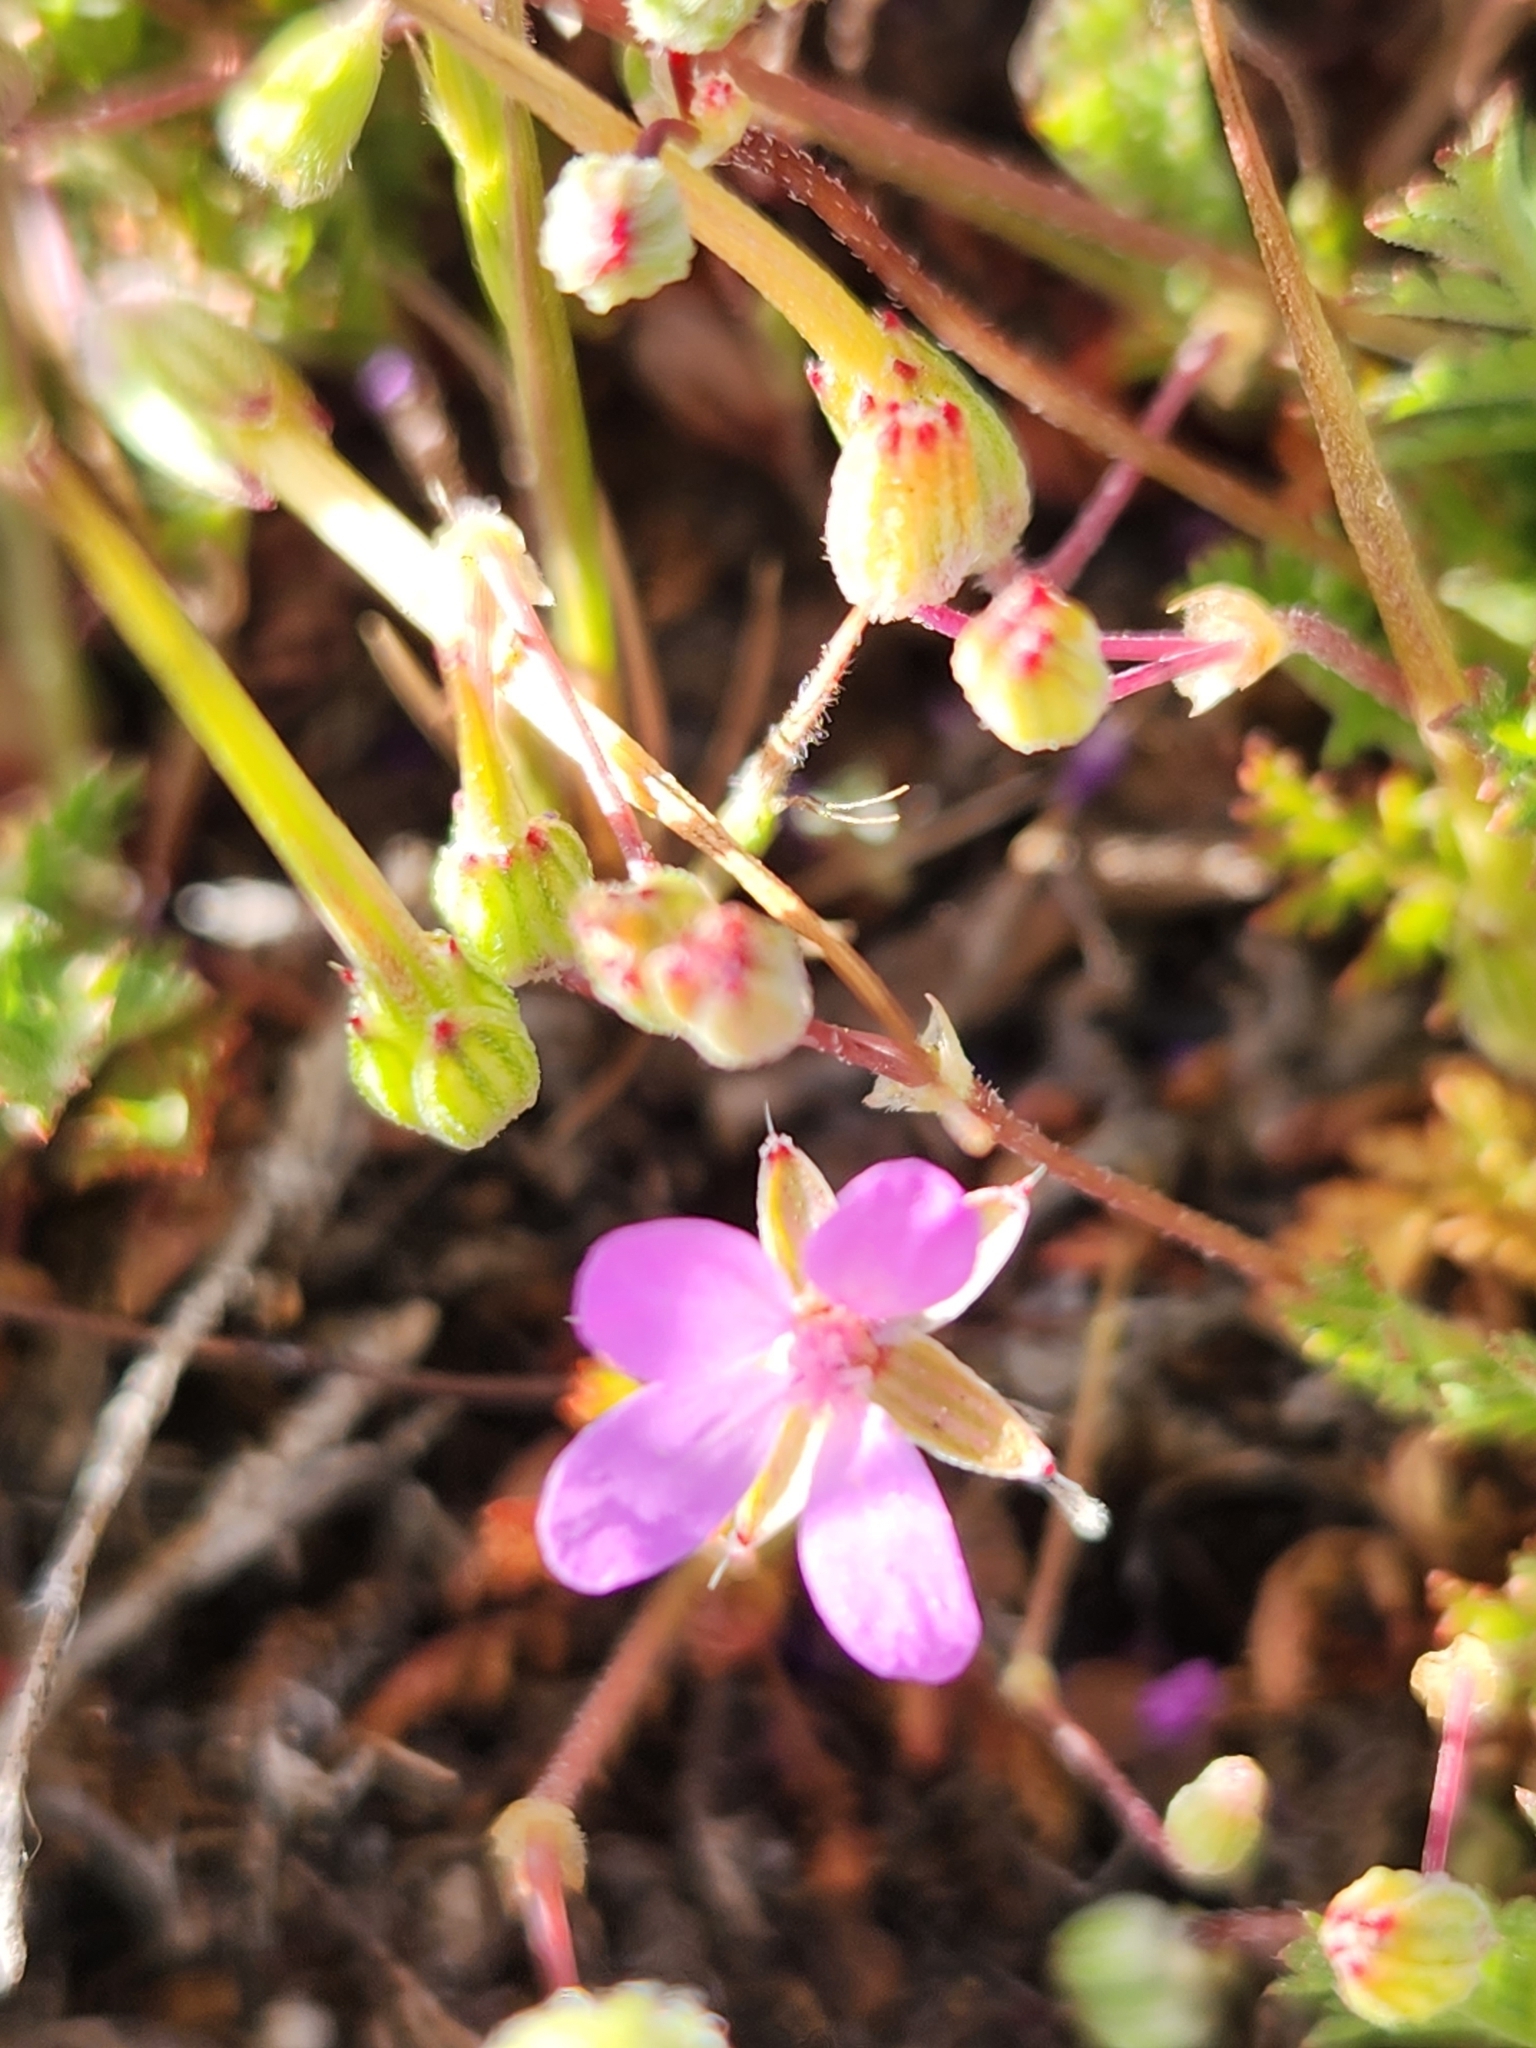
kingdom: Plantae
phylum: Tracheophyta
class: Magnoliopsida
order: Geraniales
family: Geraniaceae
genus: Erodium
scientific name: Erodium cicutarium
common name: Common stork's-bill
